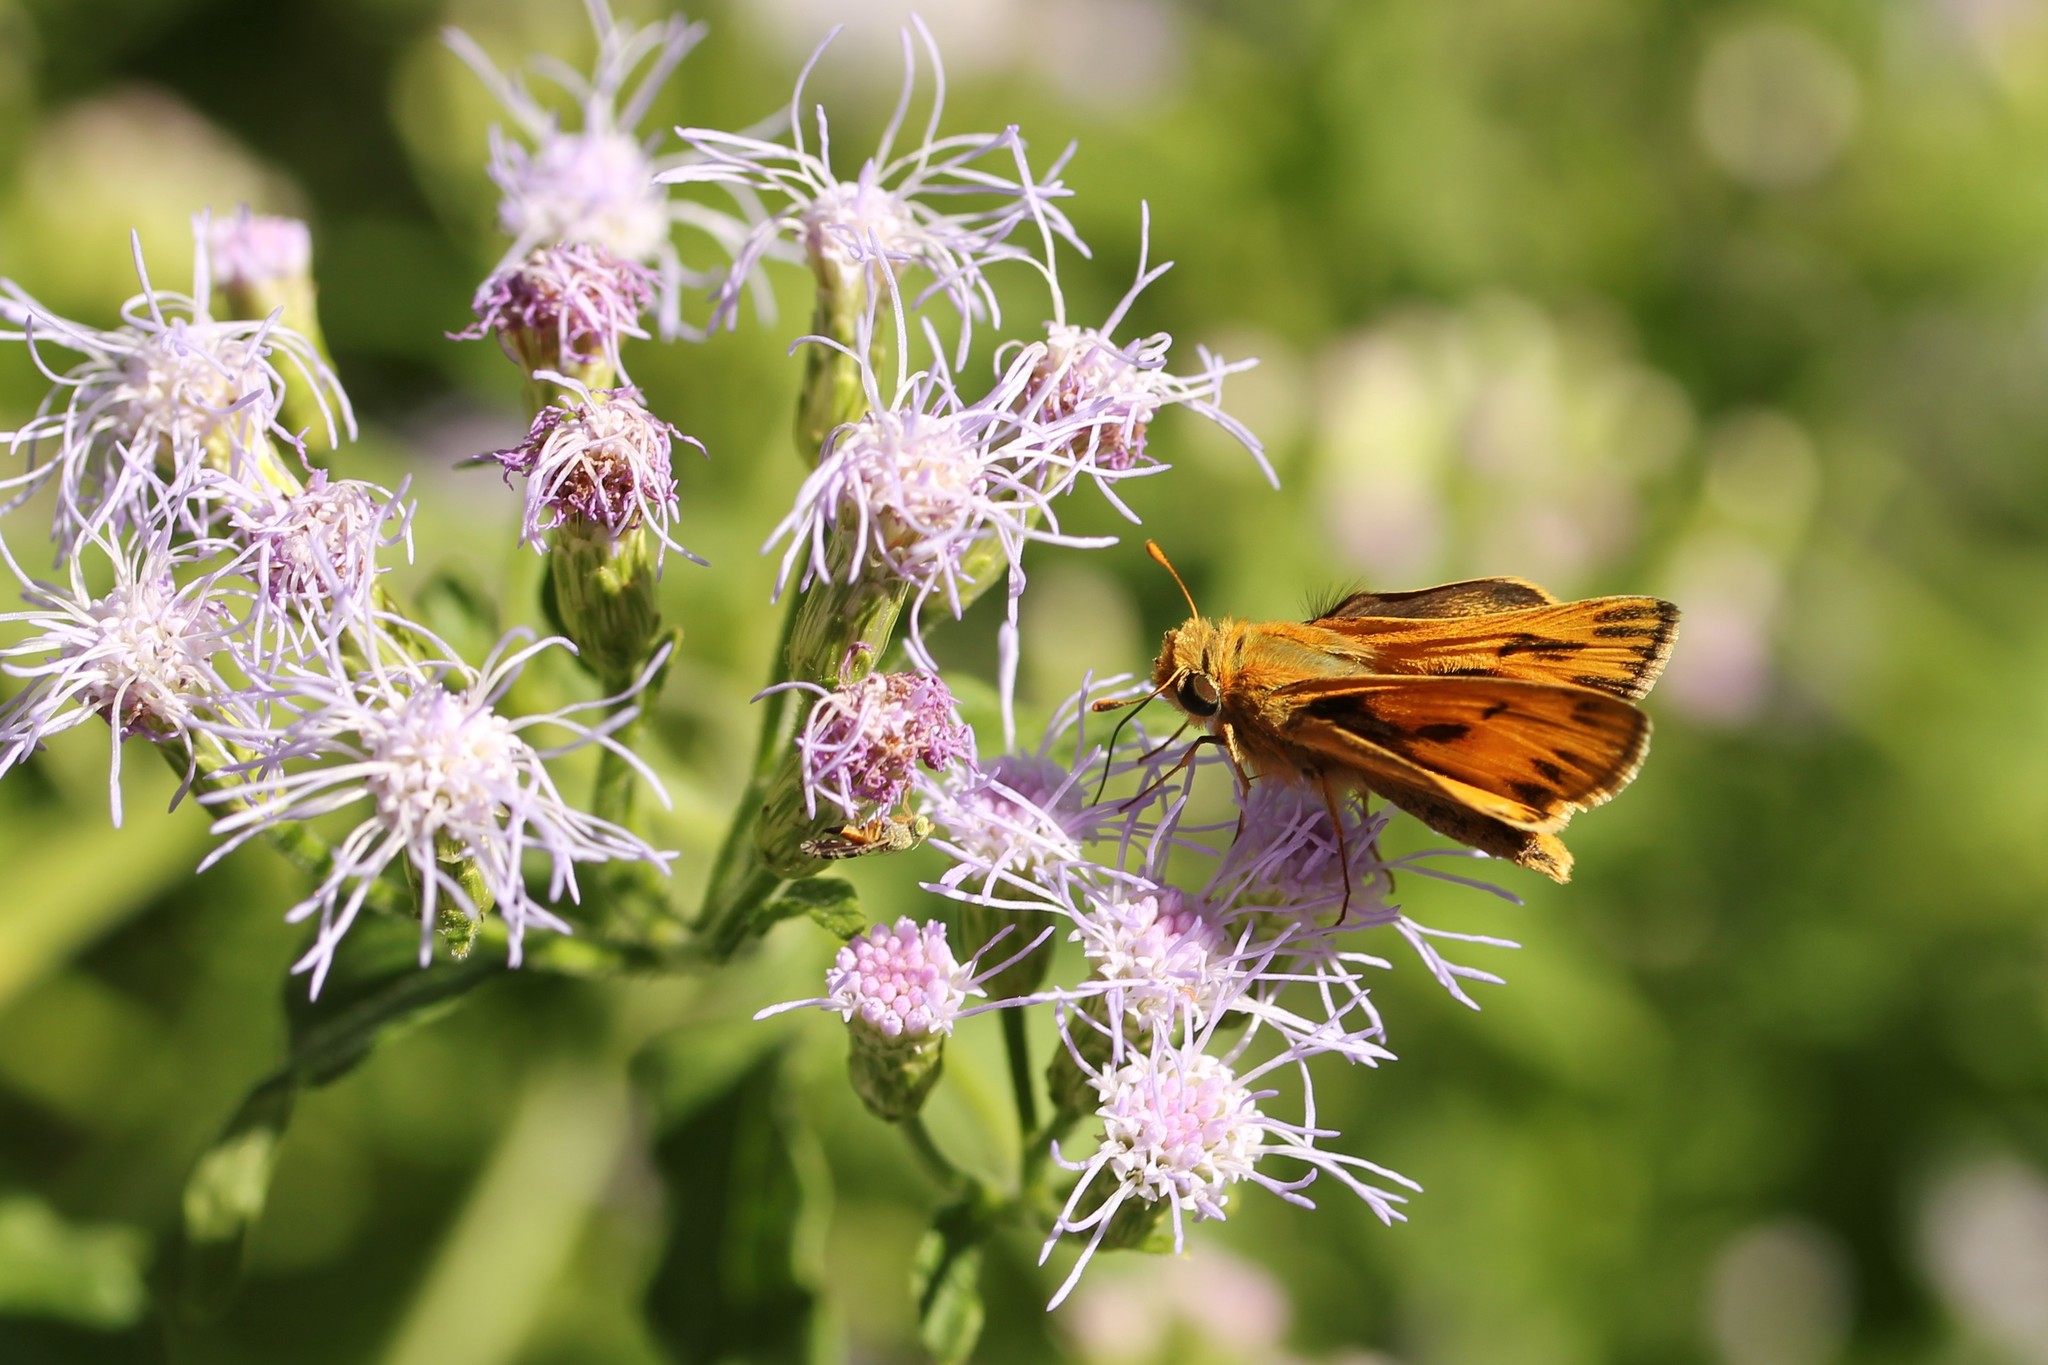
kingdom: Animalia
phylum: Arthropoda
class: Insecta
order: Lepidoptera
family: Hesperiidae
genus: Hylephila
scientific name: Hylephila phyleus
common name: Fiery skipper
